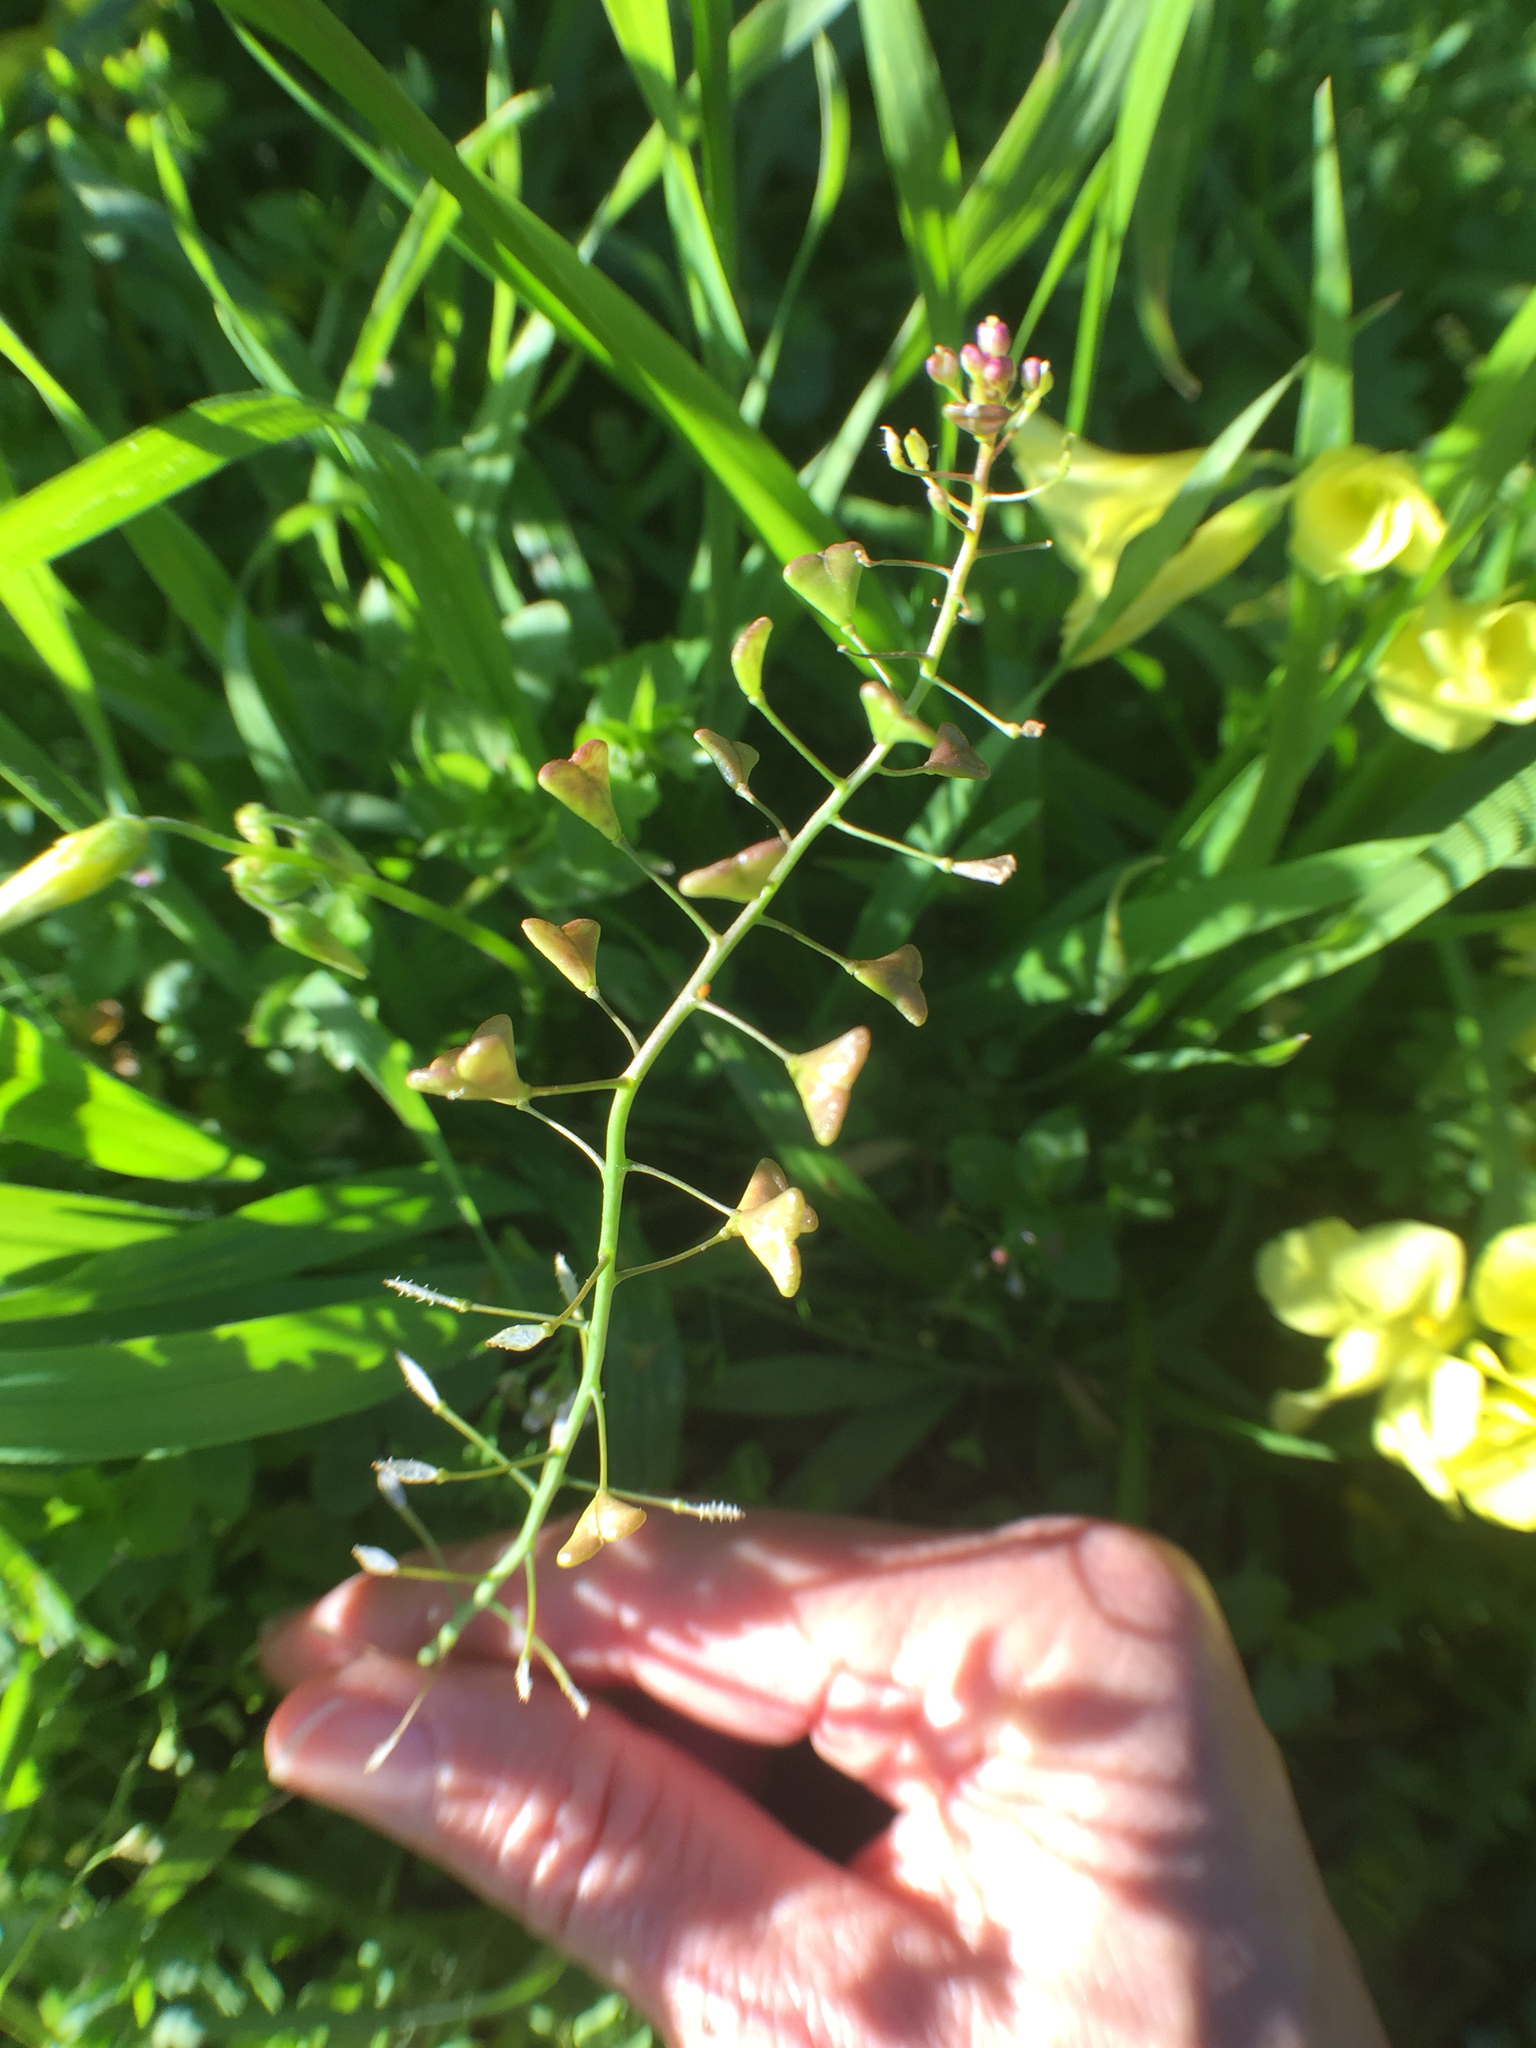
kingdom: Plantae
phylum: Tracheophyta
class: Magnoliopsida
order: Brassicales
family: Brassicaceae
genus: Capsella
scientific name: Capsella bursa-pastoris
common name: Shepherd's purse
